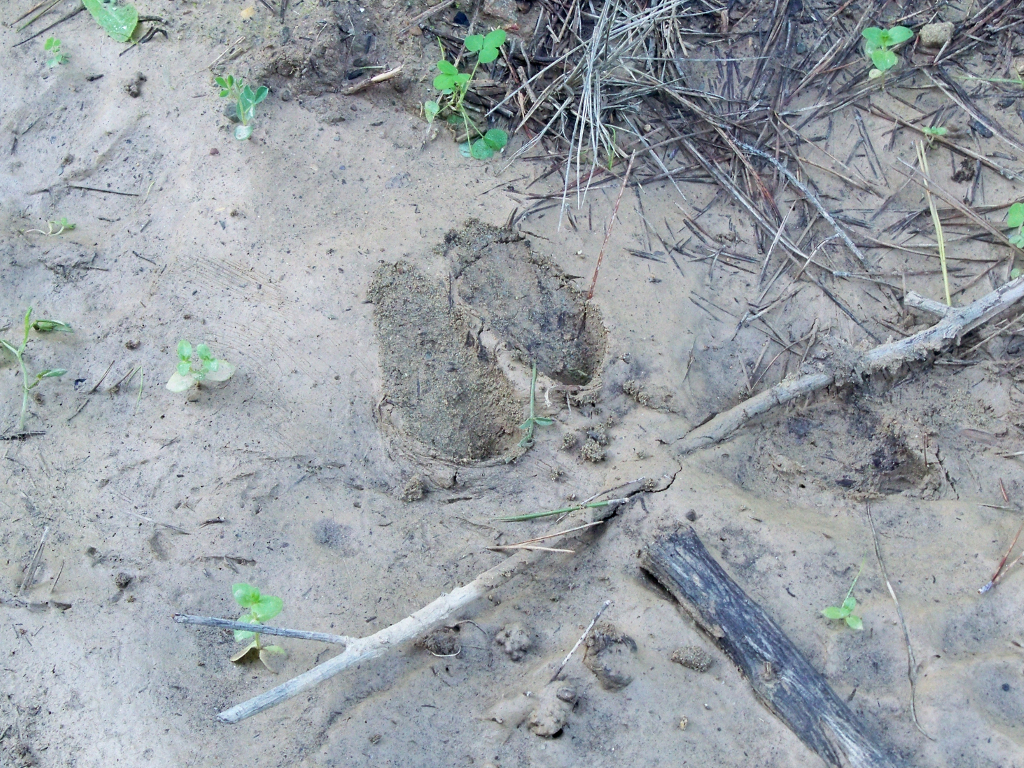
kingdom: Animalia
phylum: Chordata
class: Mammalia
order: Artiodactyla
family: Suidae
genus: Sus
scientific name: Sus scrofa
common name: Wild boar
